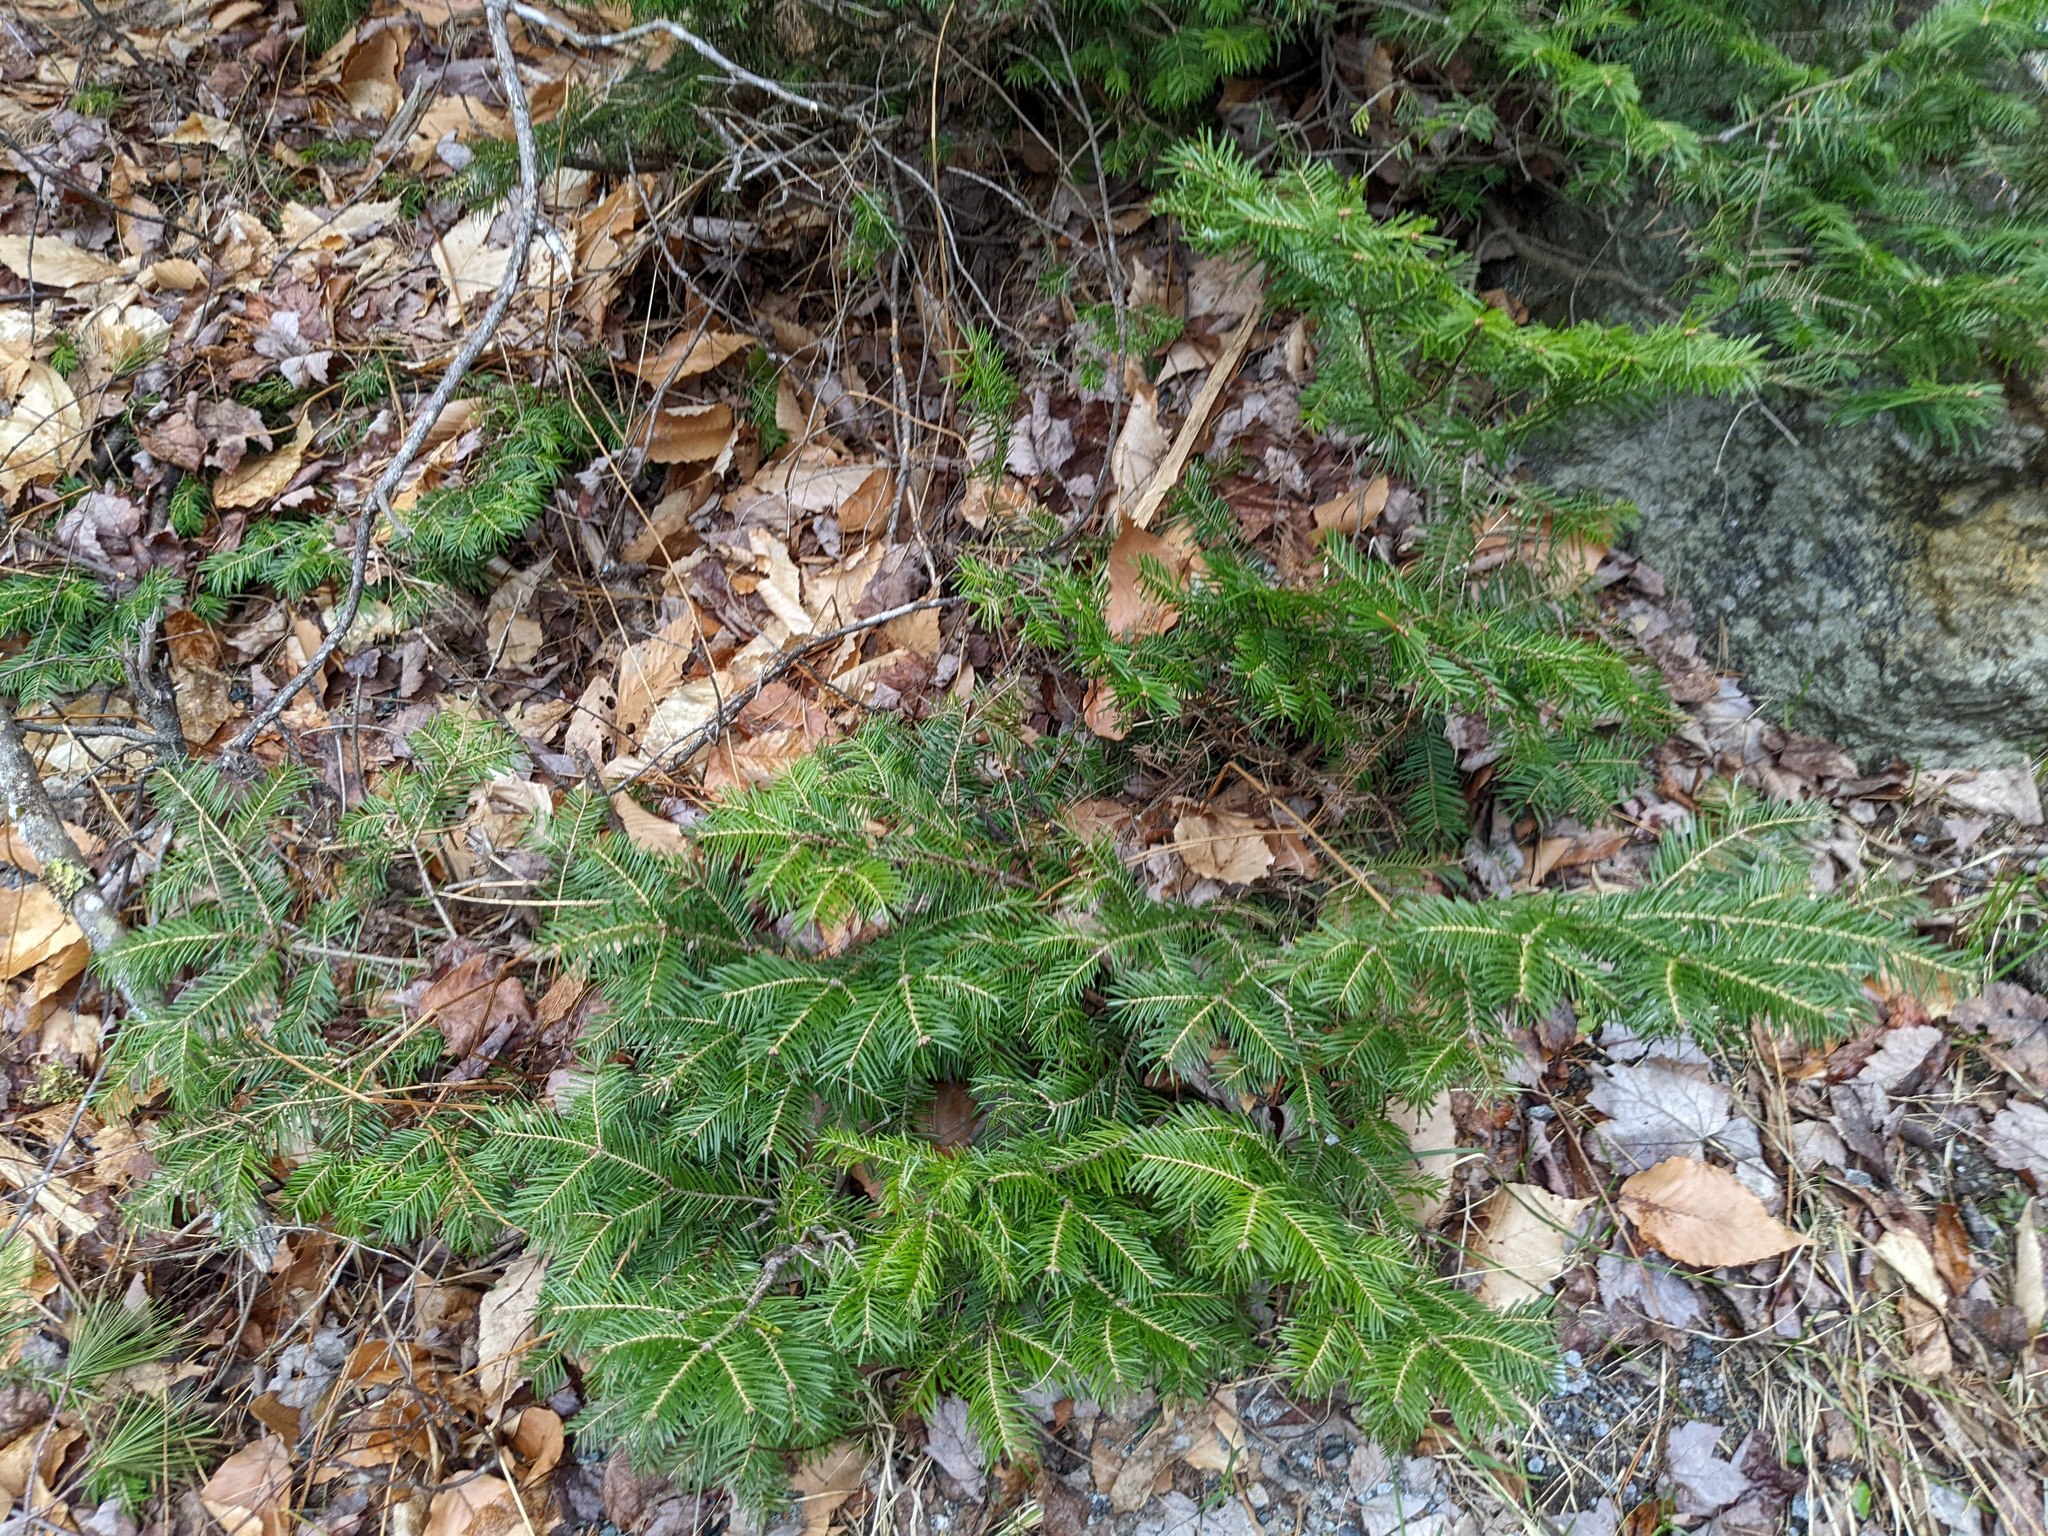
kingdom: Plantae
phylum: Tracheophyta
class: Pinopsida
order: Pinales
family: Pinaceae
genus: Abies
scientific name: Abies balsamea
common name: Balsam fir
